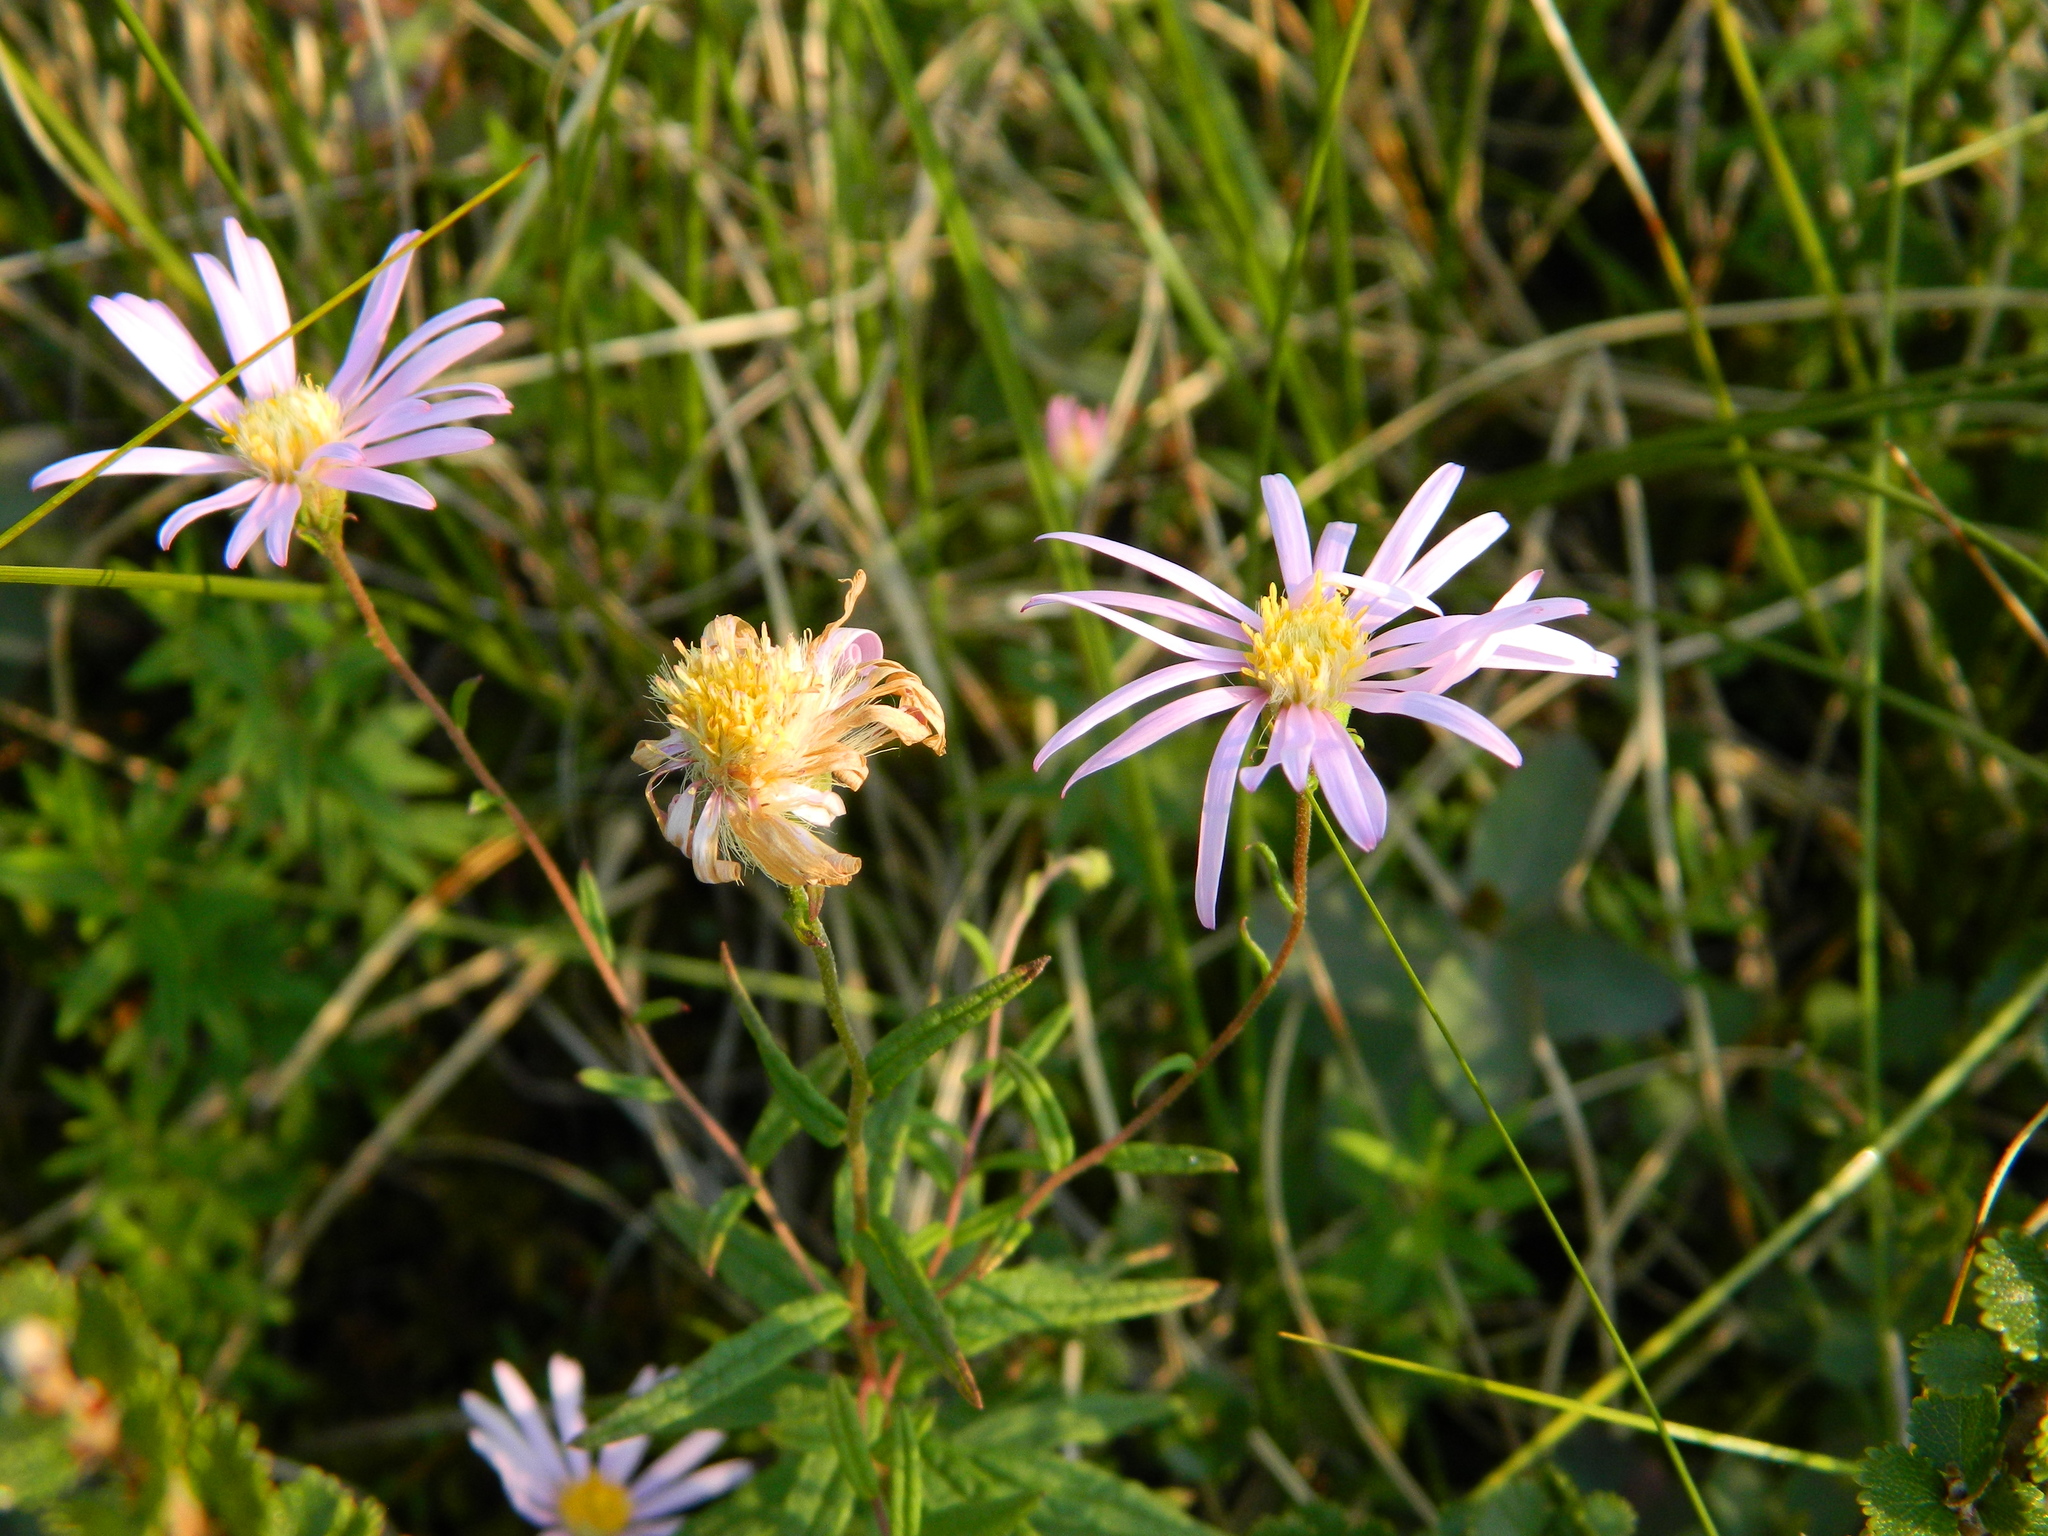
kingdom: Plantae
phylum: Tracheophyta
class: Magnoliopsida
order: Asterales
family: Asteraceae
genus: Oclemena
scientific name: Oclemena nemoralis
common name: Bog aster
